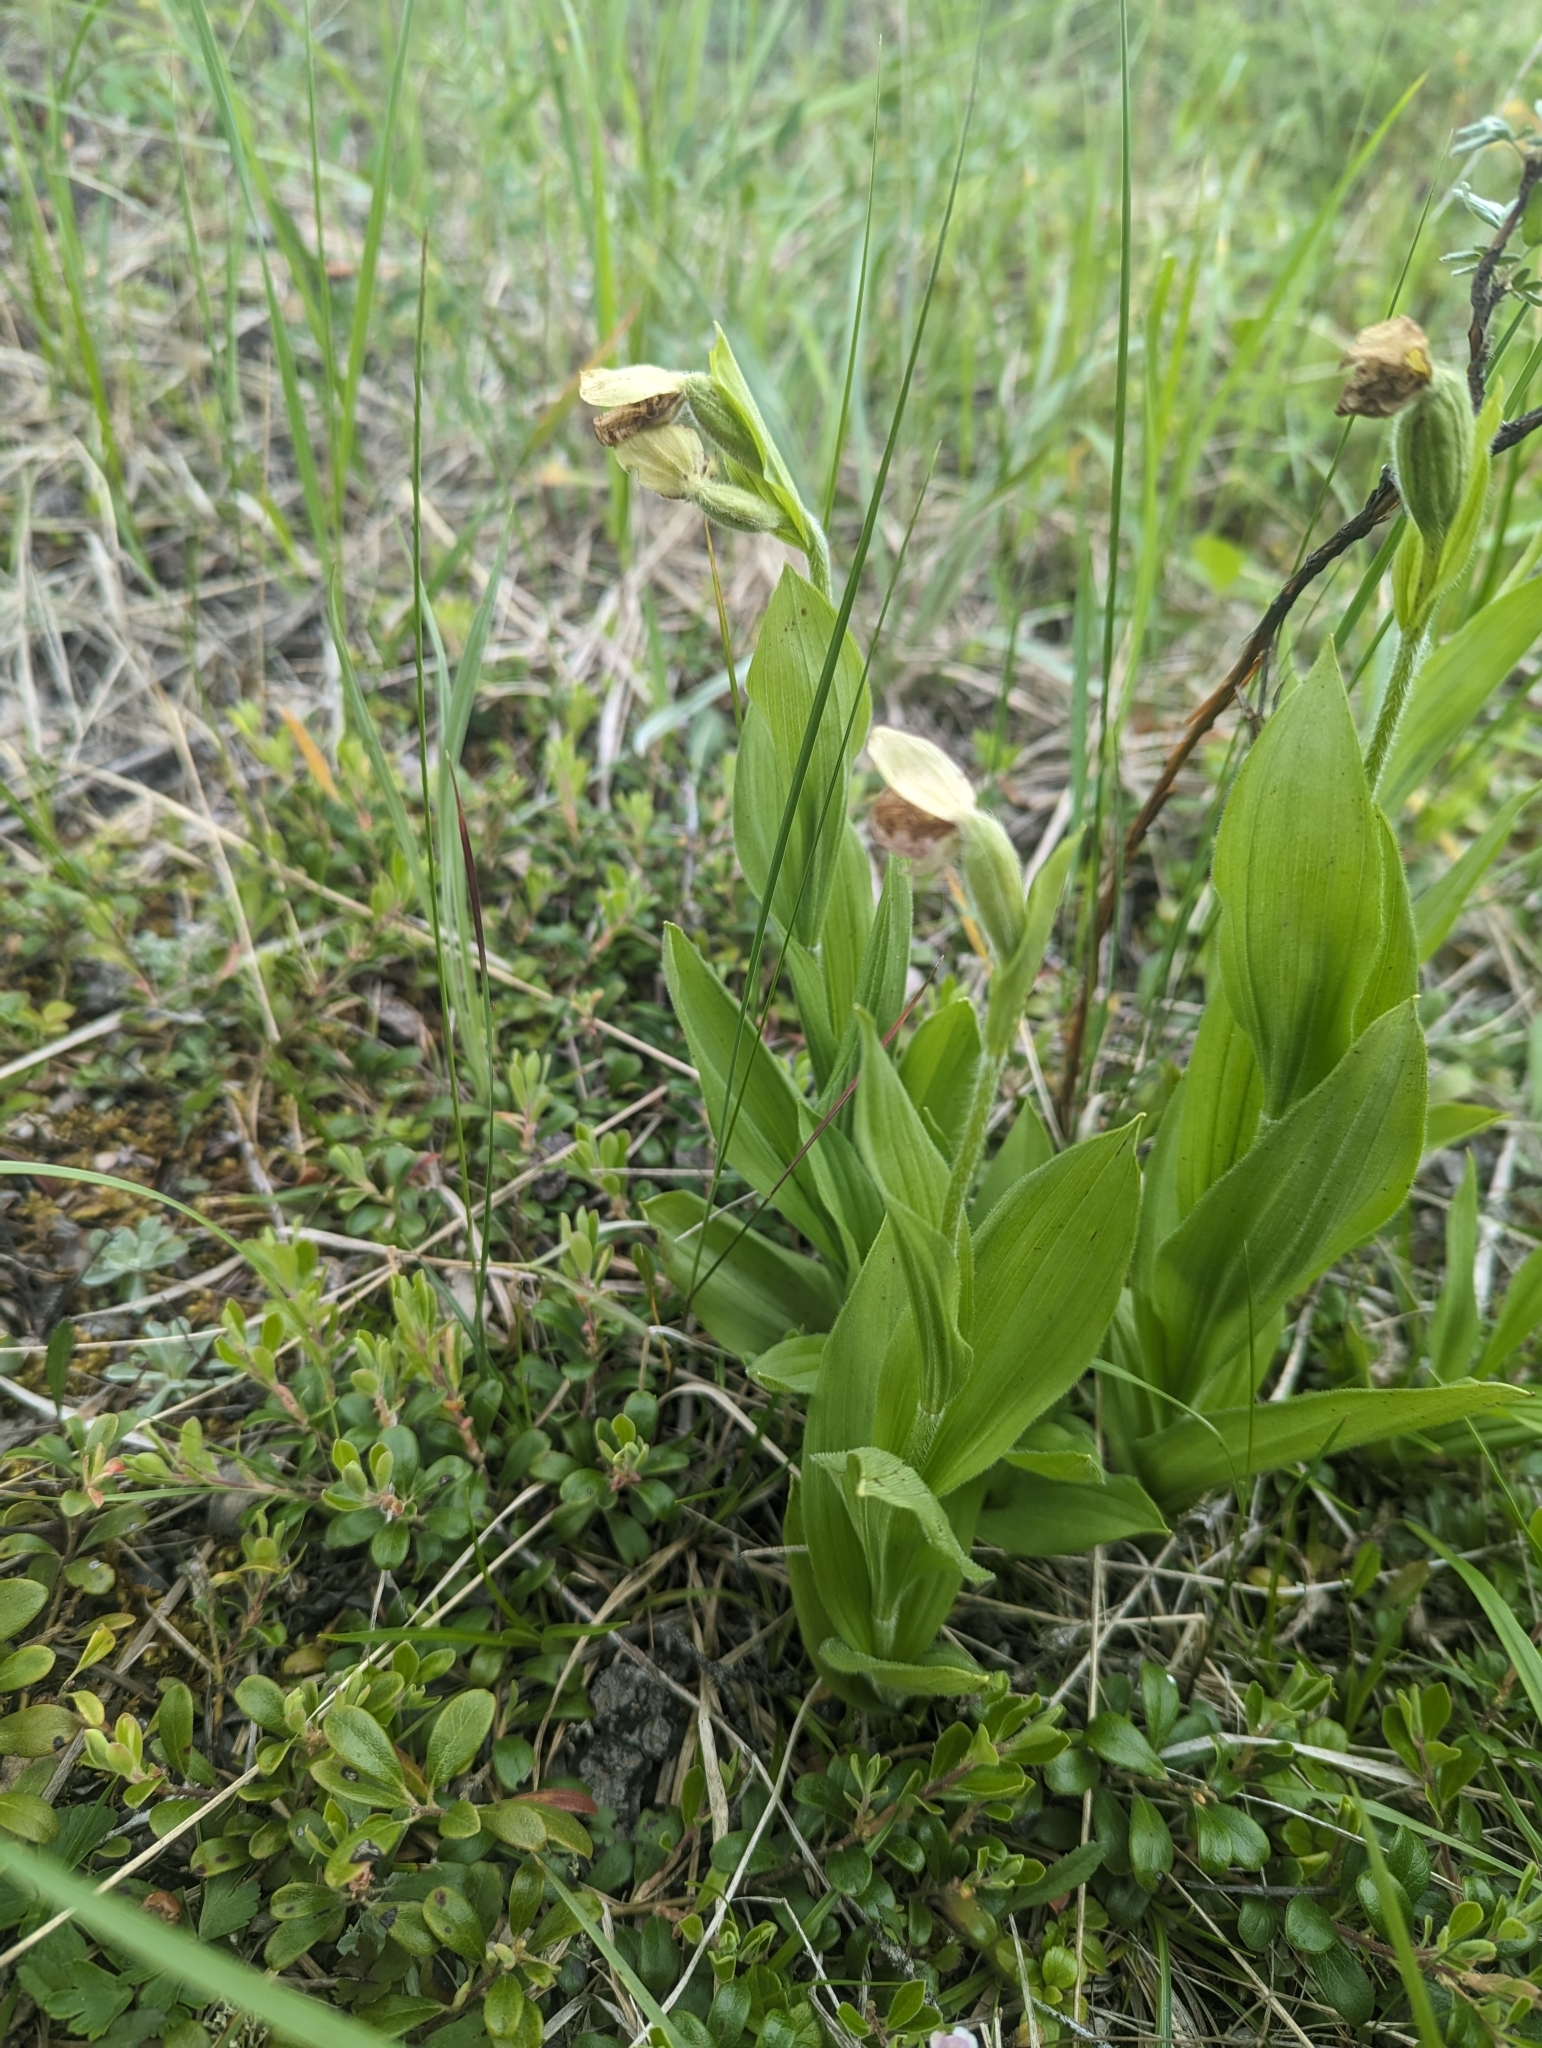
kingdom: Plantae
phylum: Tracheophyta
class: Liliopsida
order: Asparagales
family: Orchidaceae
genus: Cypripedium
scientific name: Cypripedium passerinum
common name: Sparrow's-egg lady's-slipper
